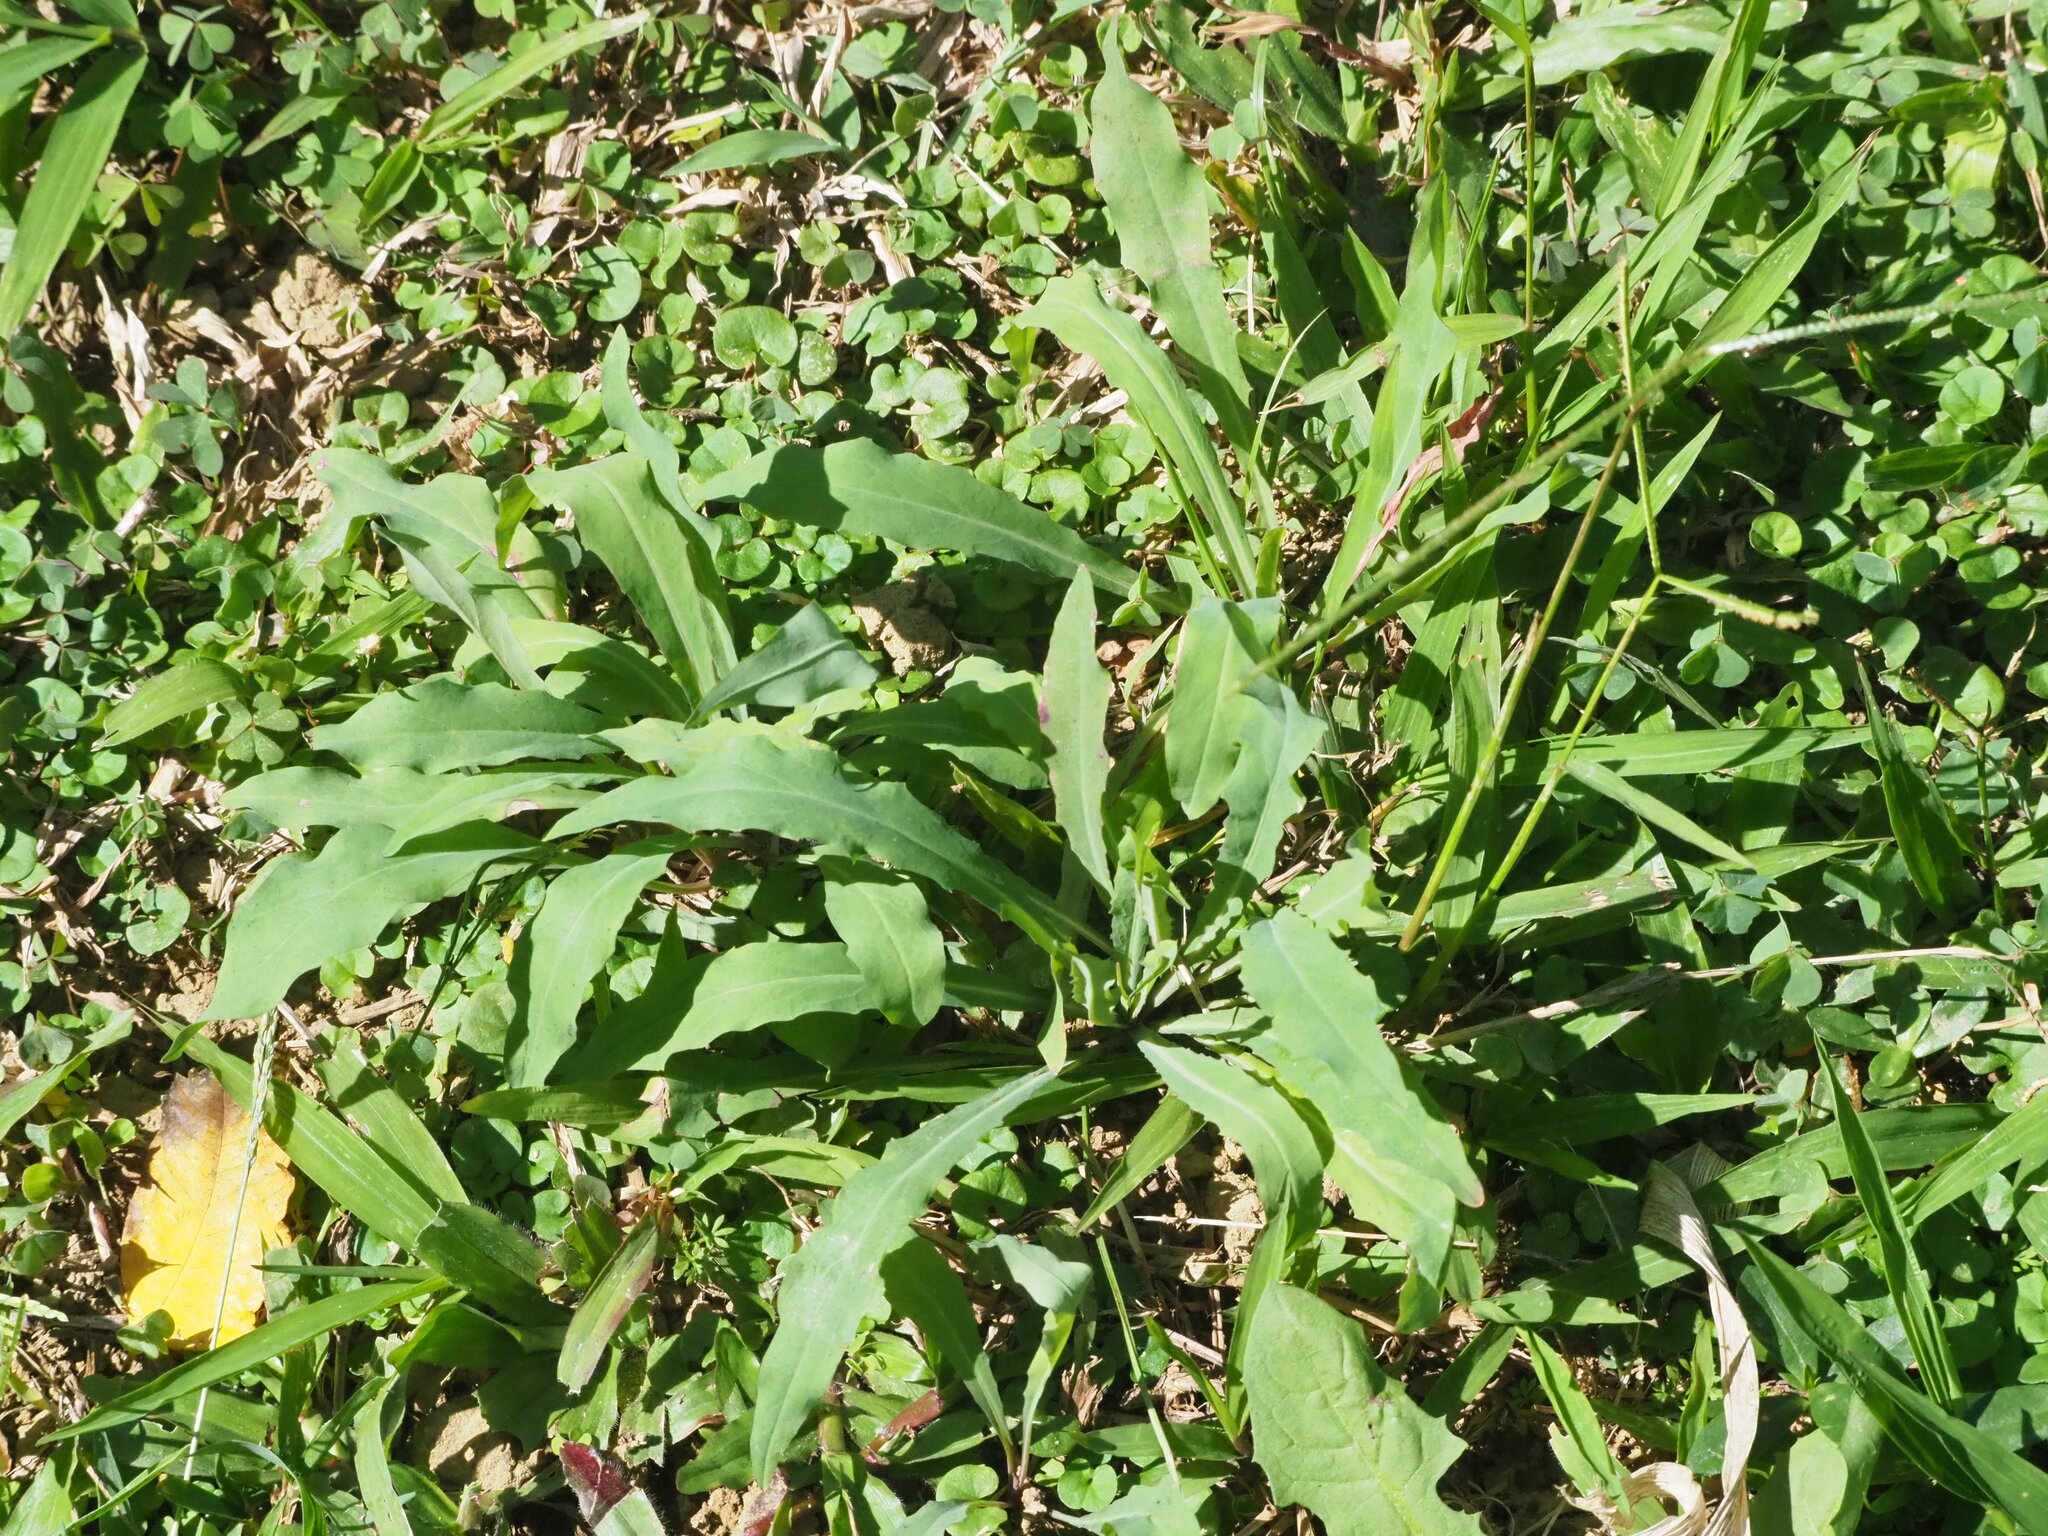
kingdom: Plantae
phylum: Tracheophyta
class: Magnoliopsida
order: Asterales
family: Asteraceae
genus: Ixeris
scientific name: Ixeris chinensis
